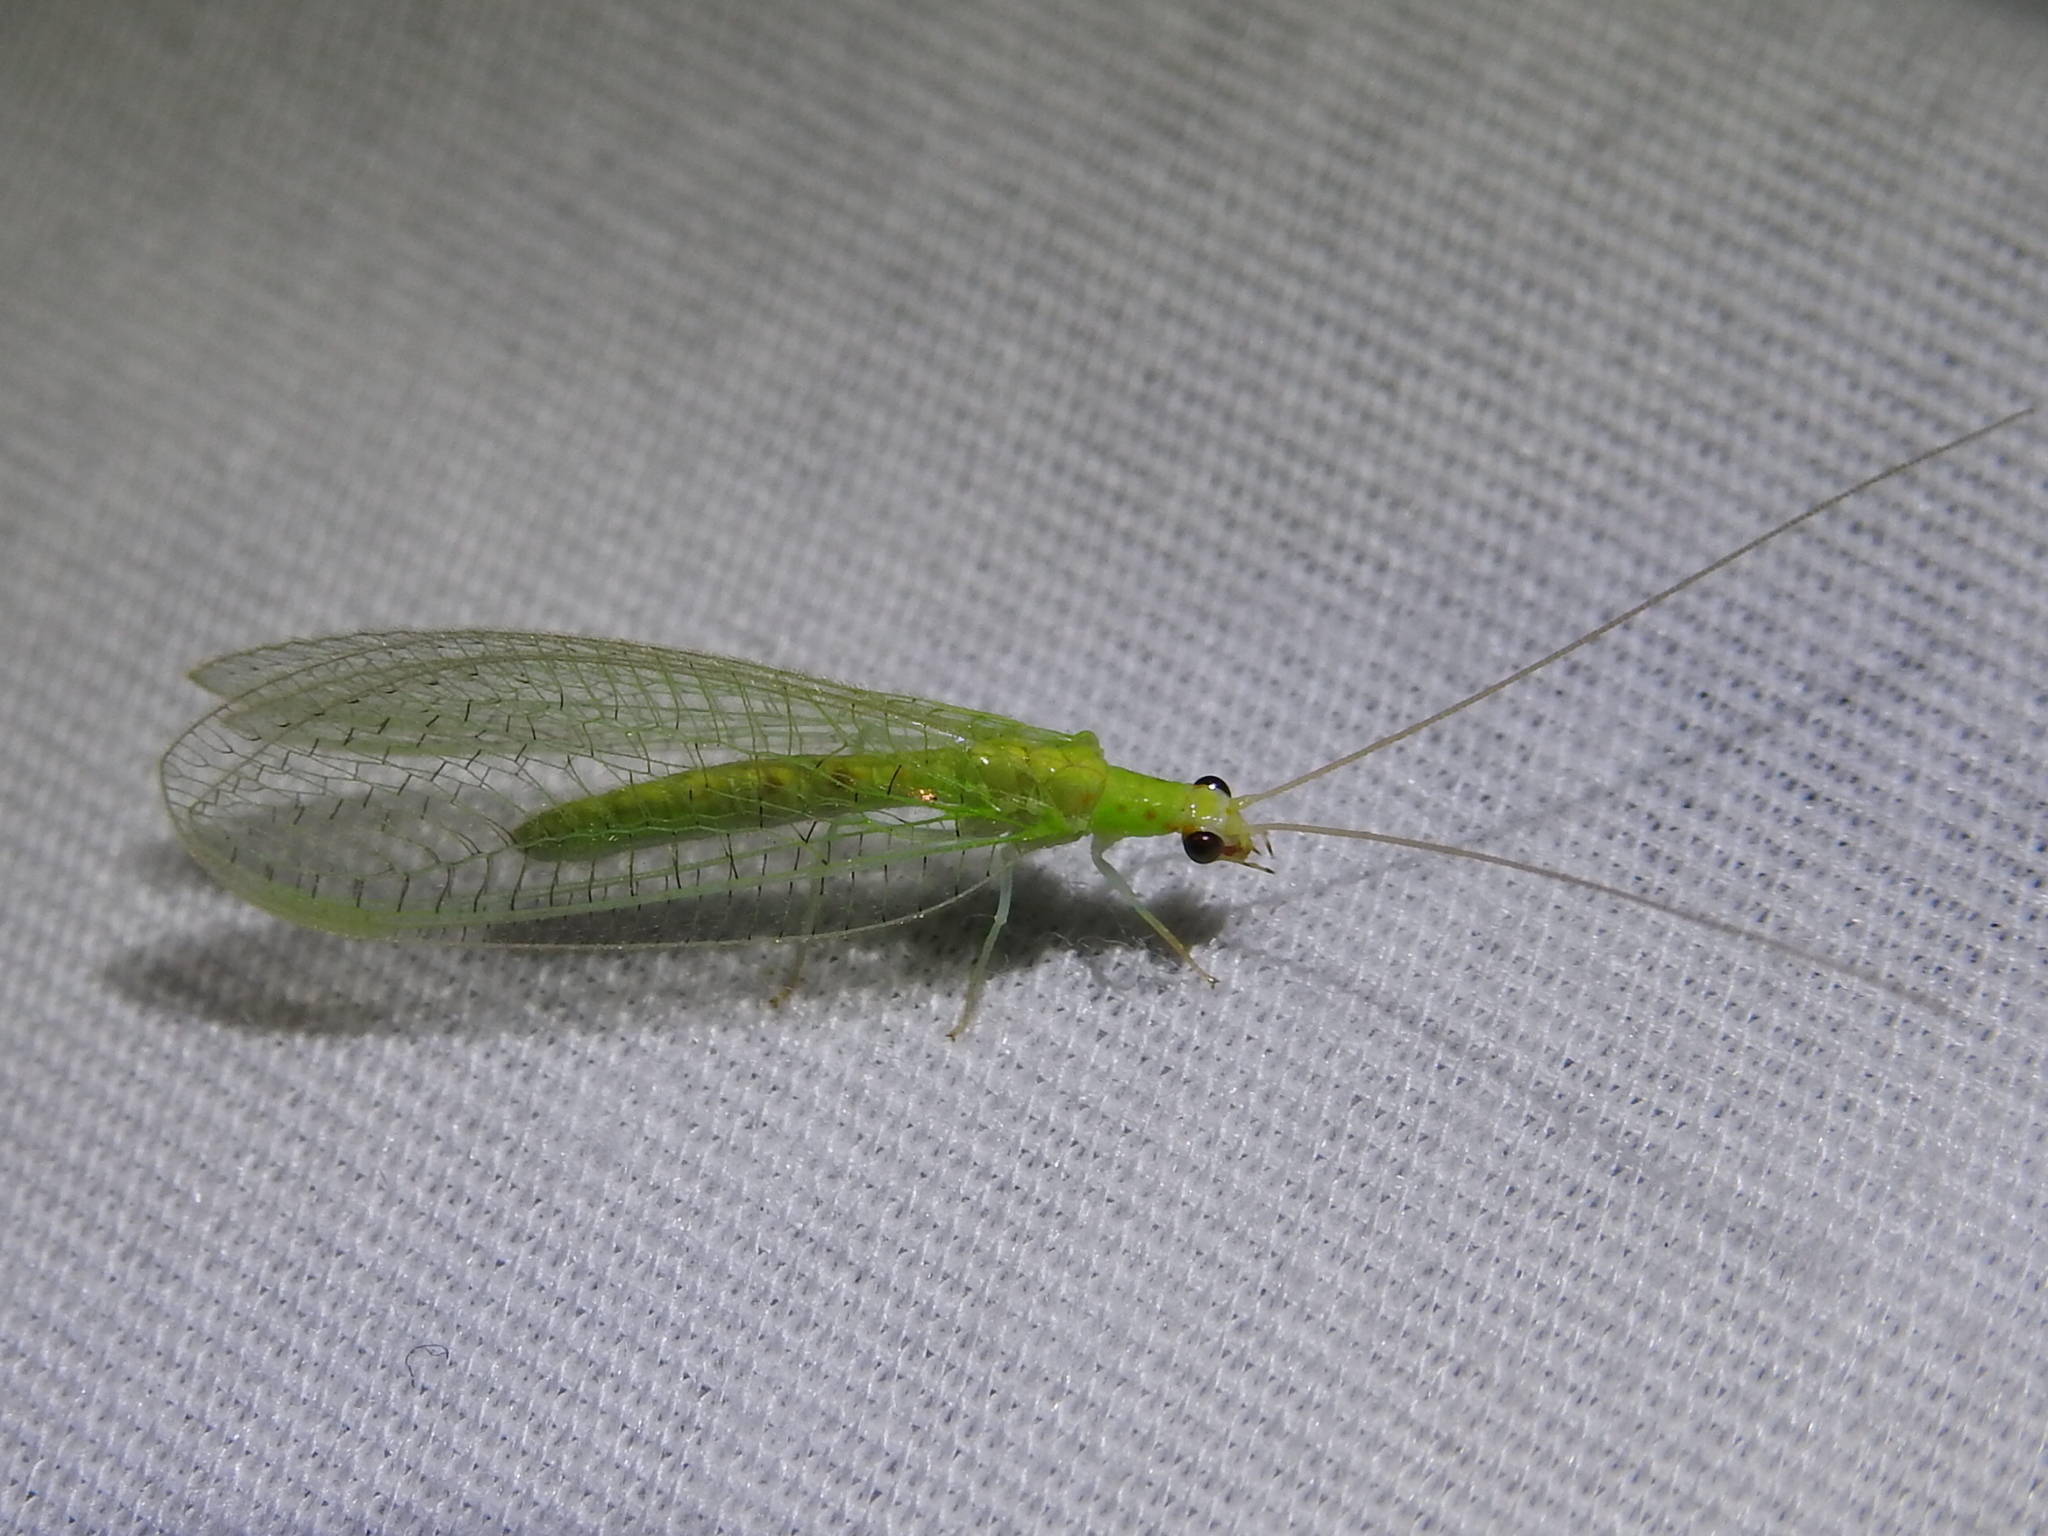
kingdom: Animalia
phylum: Arthropoda
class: Insecta
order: Neuroptera
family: Chrysopidae
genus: Chrysopa
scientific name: Chrysopa quadripunctata
